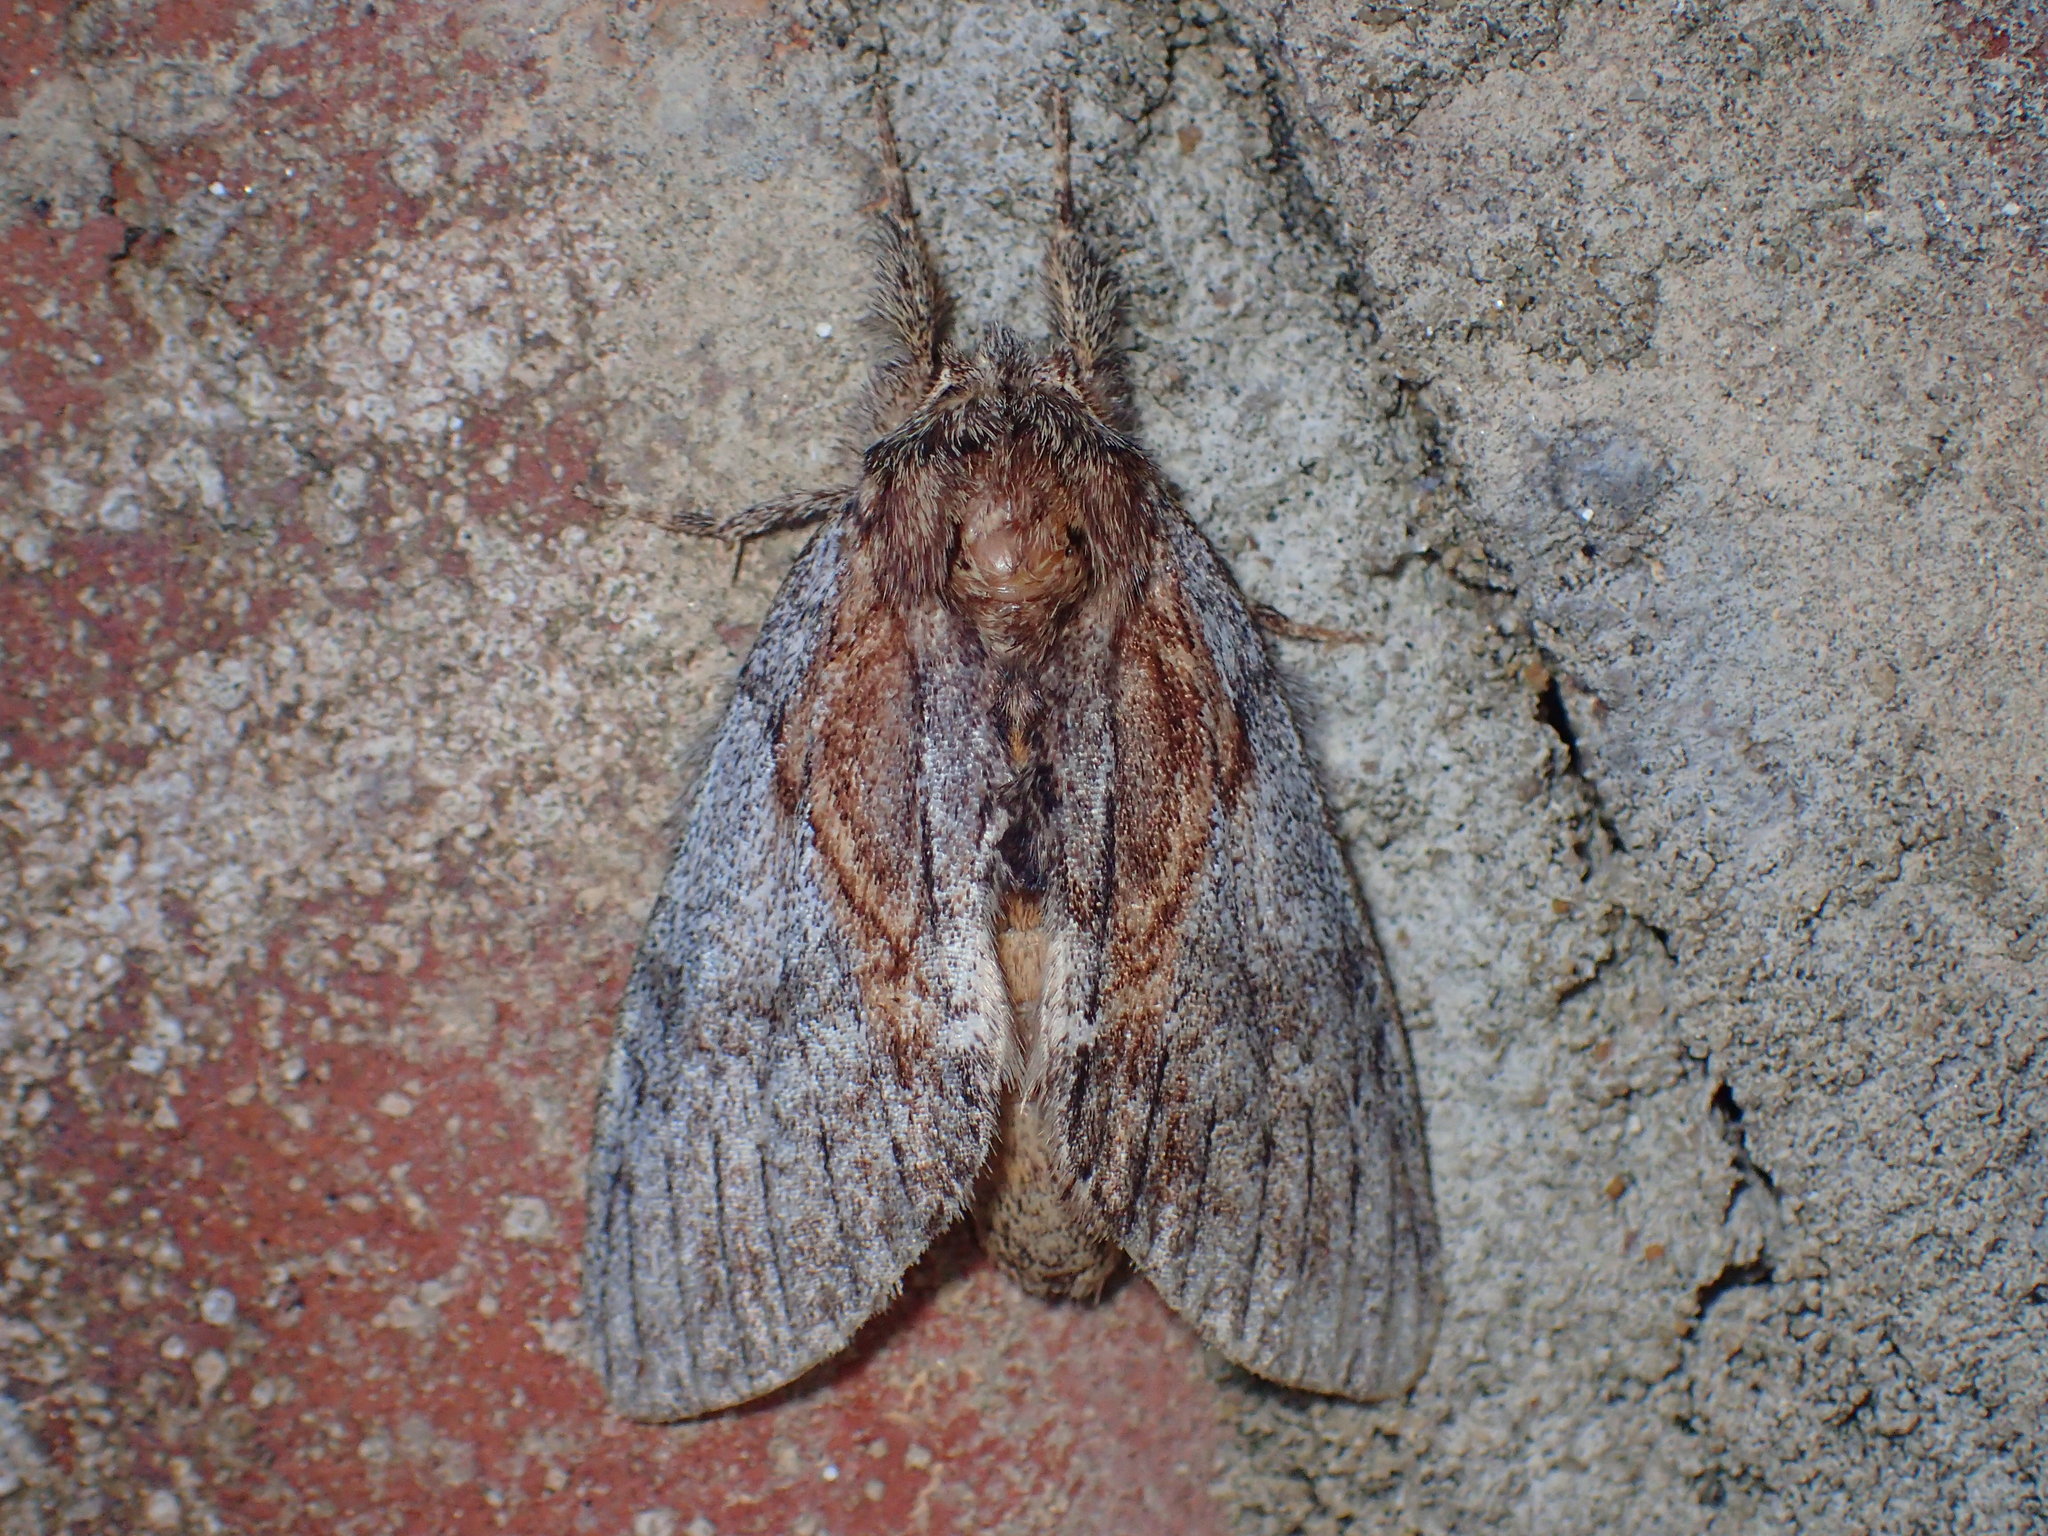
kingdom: Animalia
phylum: Arthropoda
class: Insecta
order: Lepidoptera
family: Notodontidae
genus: Peridea
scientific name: Peridea basitriens
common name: Oval-based prominent
